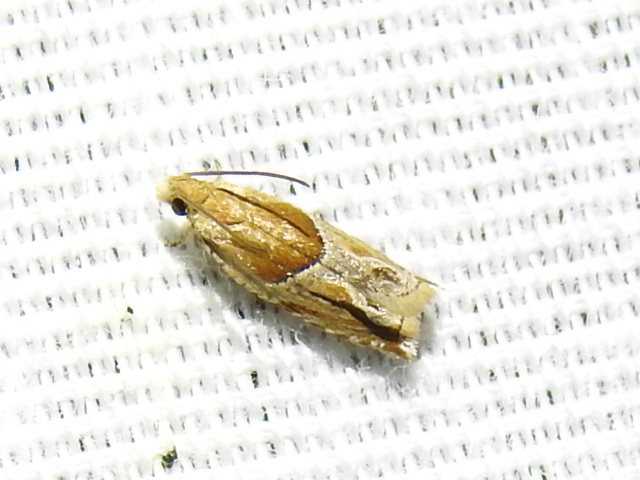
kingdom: Animalia
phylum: Arthropoda
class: Insecta
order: Lepidoptera
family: Tortricidae
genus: Ancylis
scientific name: Ancylis comptana
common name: Little roller
